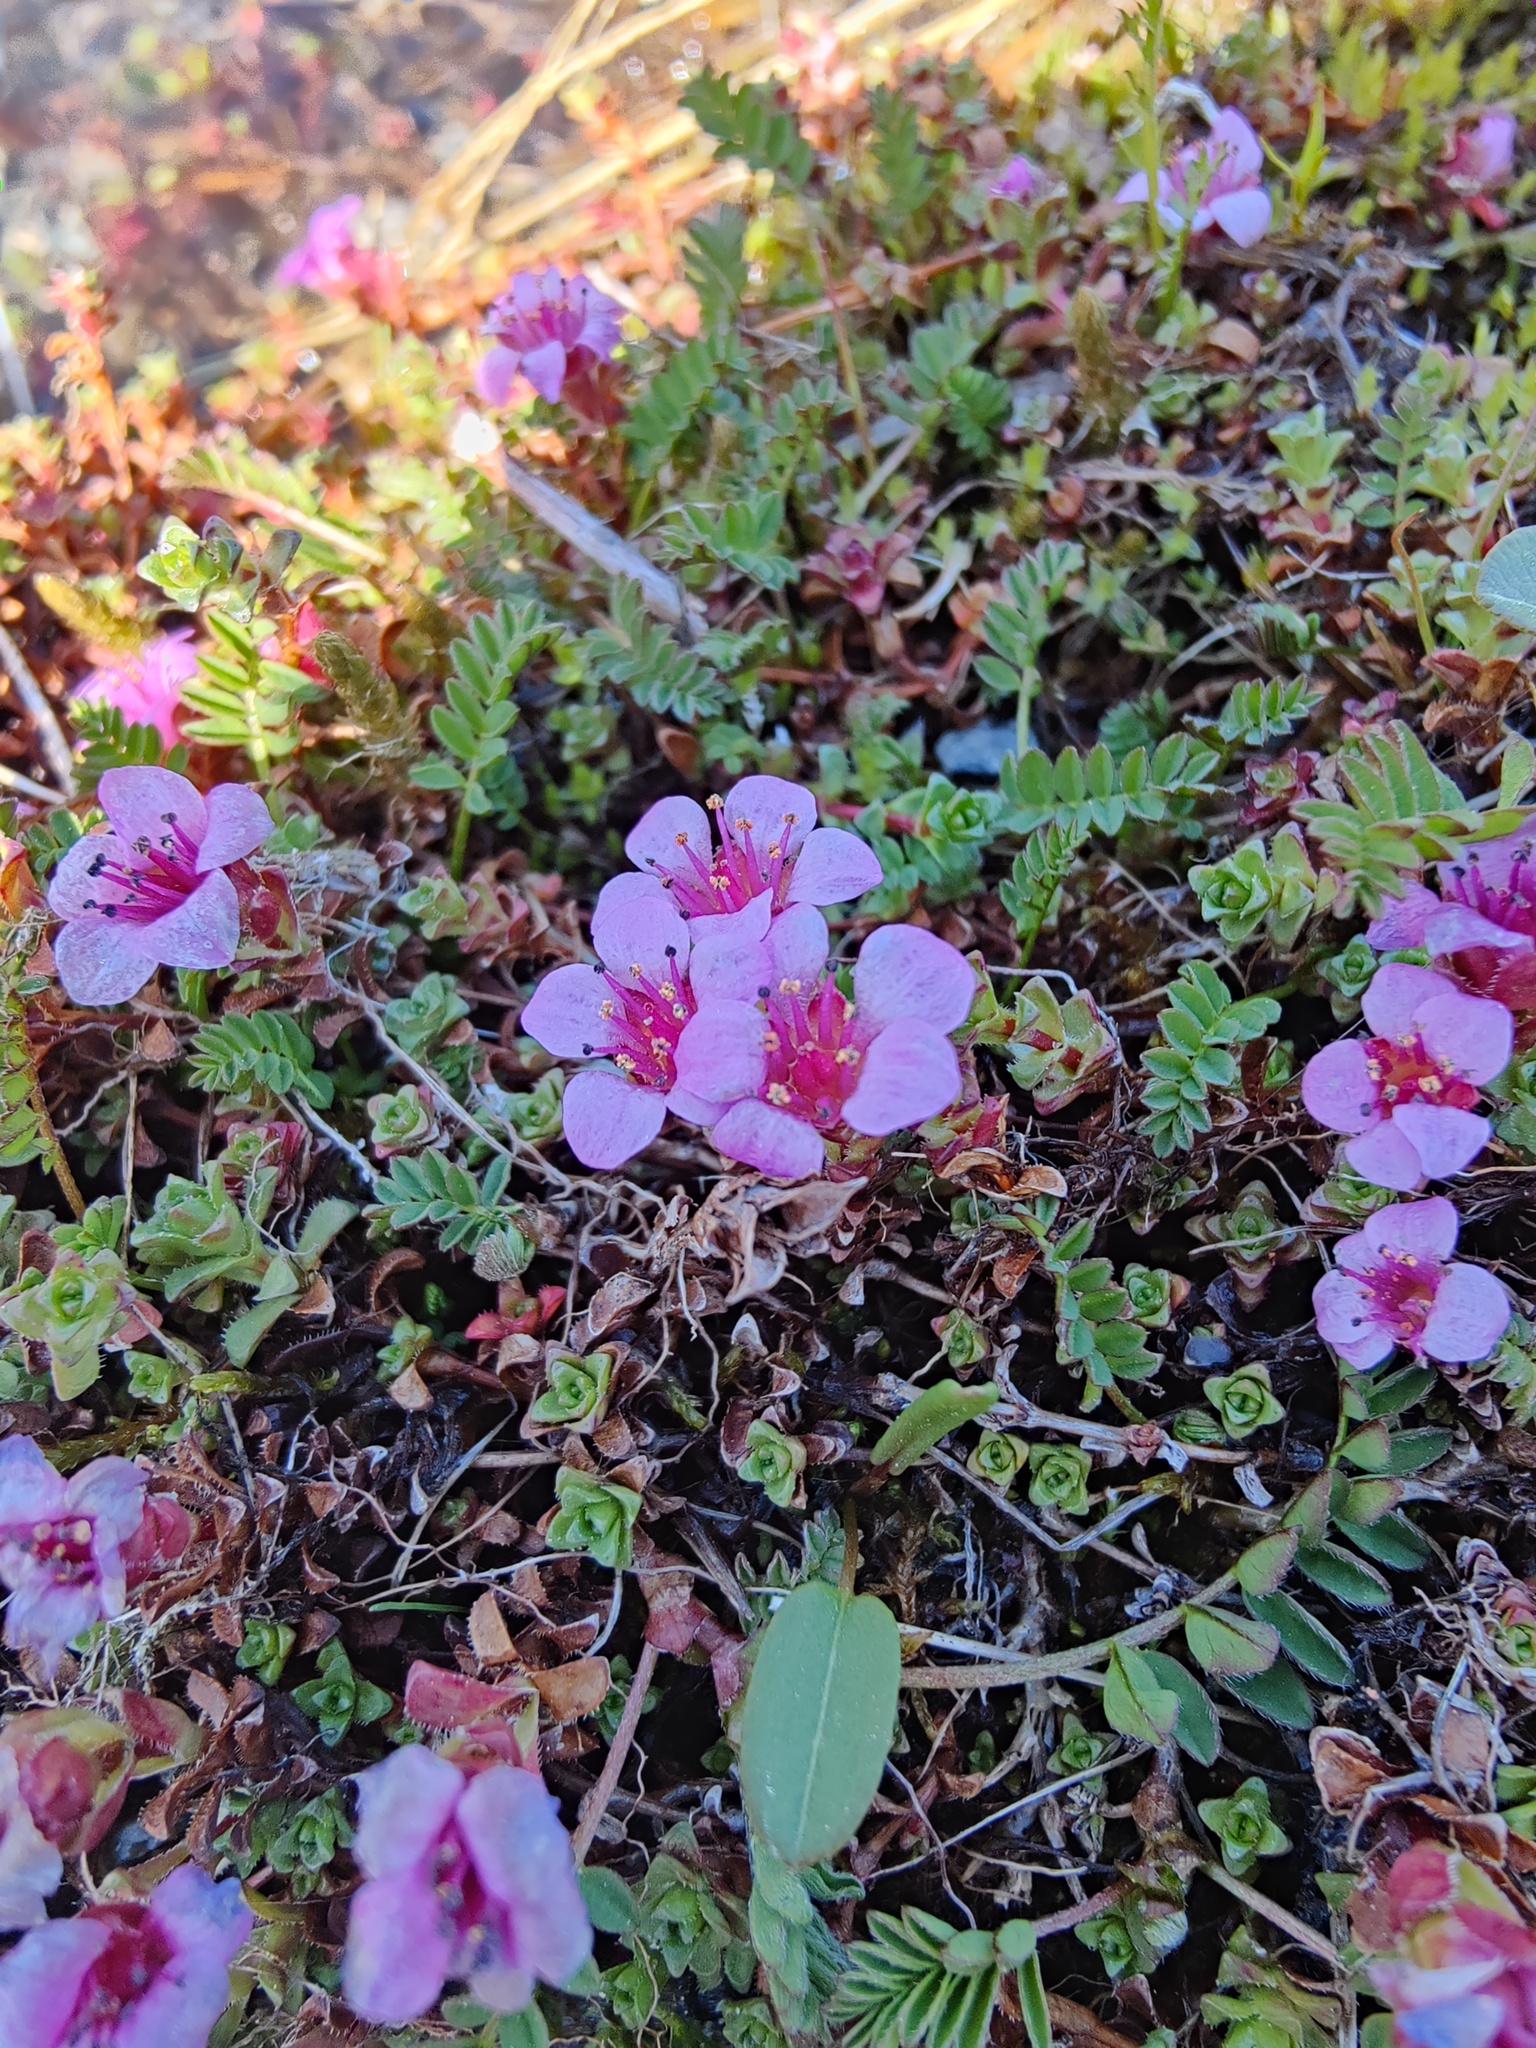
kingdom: Plantae
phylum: Tracheophyta
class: Magnoliopsida
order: Saxifragales
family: Saxifragaceae
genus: Saxifraga
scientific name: Saxifraga oppositifolia
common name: Purple saxifrage
